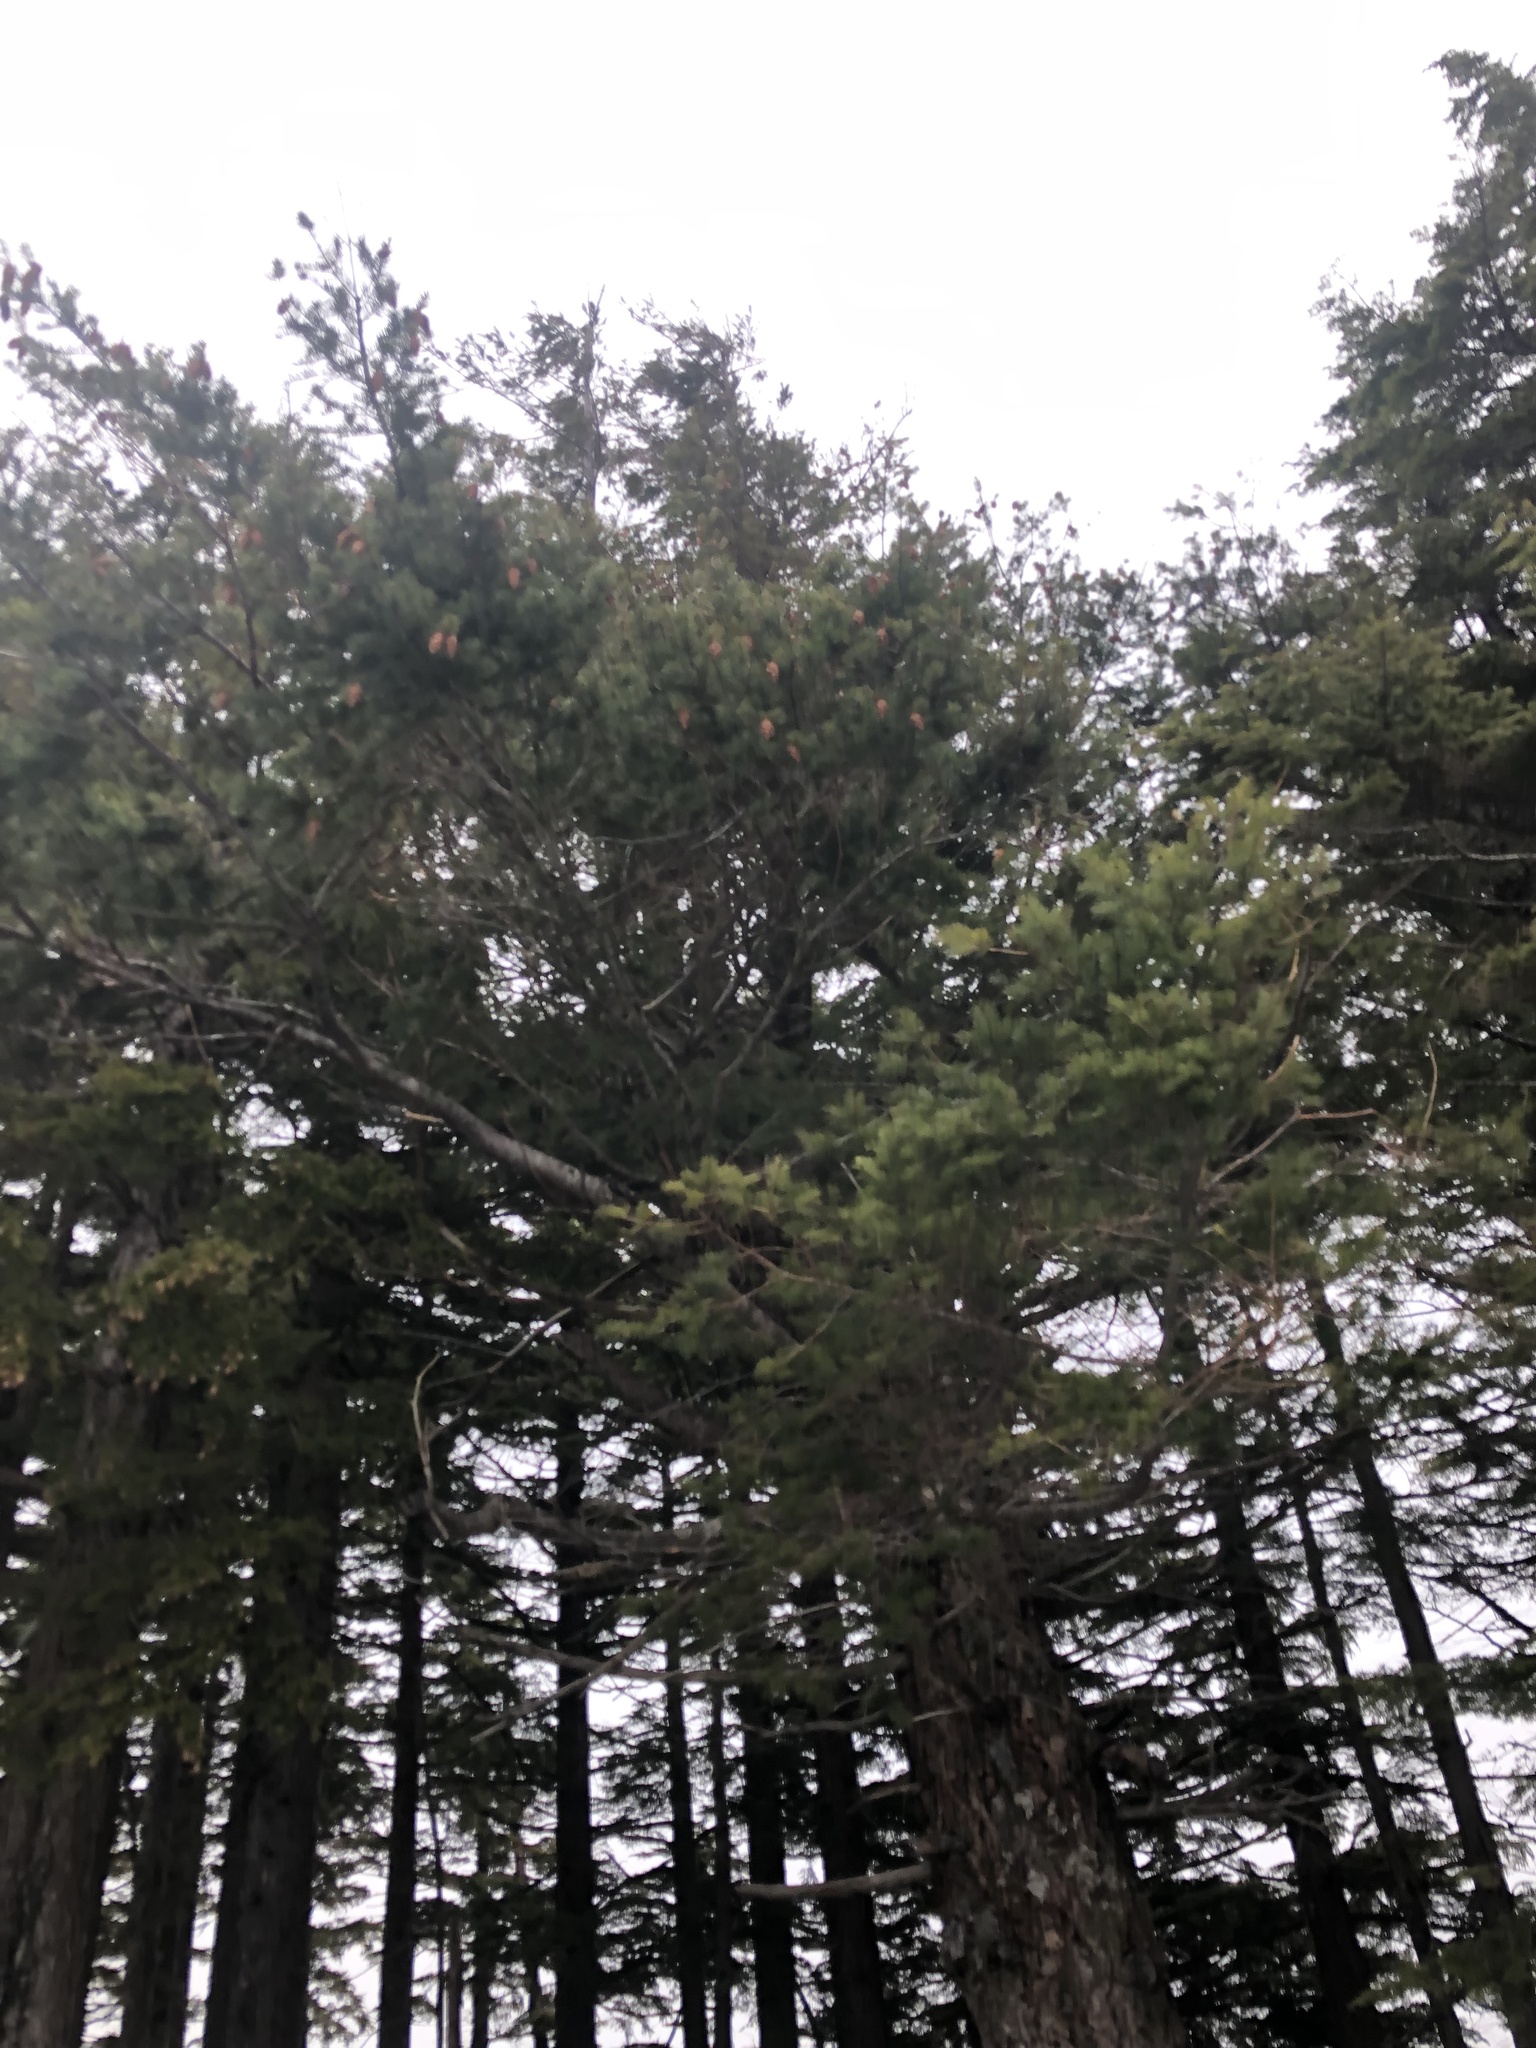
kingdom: Plantae
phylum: Tracheophyta
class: Pinopsida
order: Pinales
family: Pinaceae
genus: Pseudotsuga
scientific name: Pseudotsuga menziesii
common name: Douglas fir
